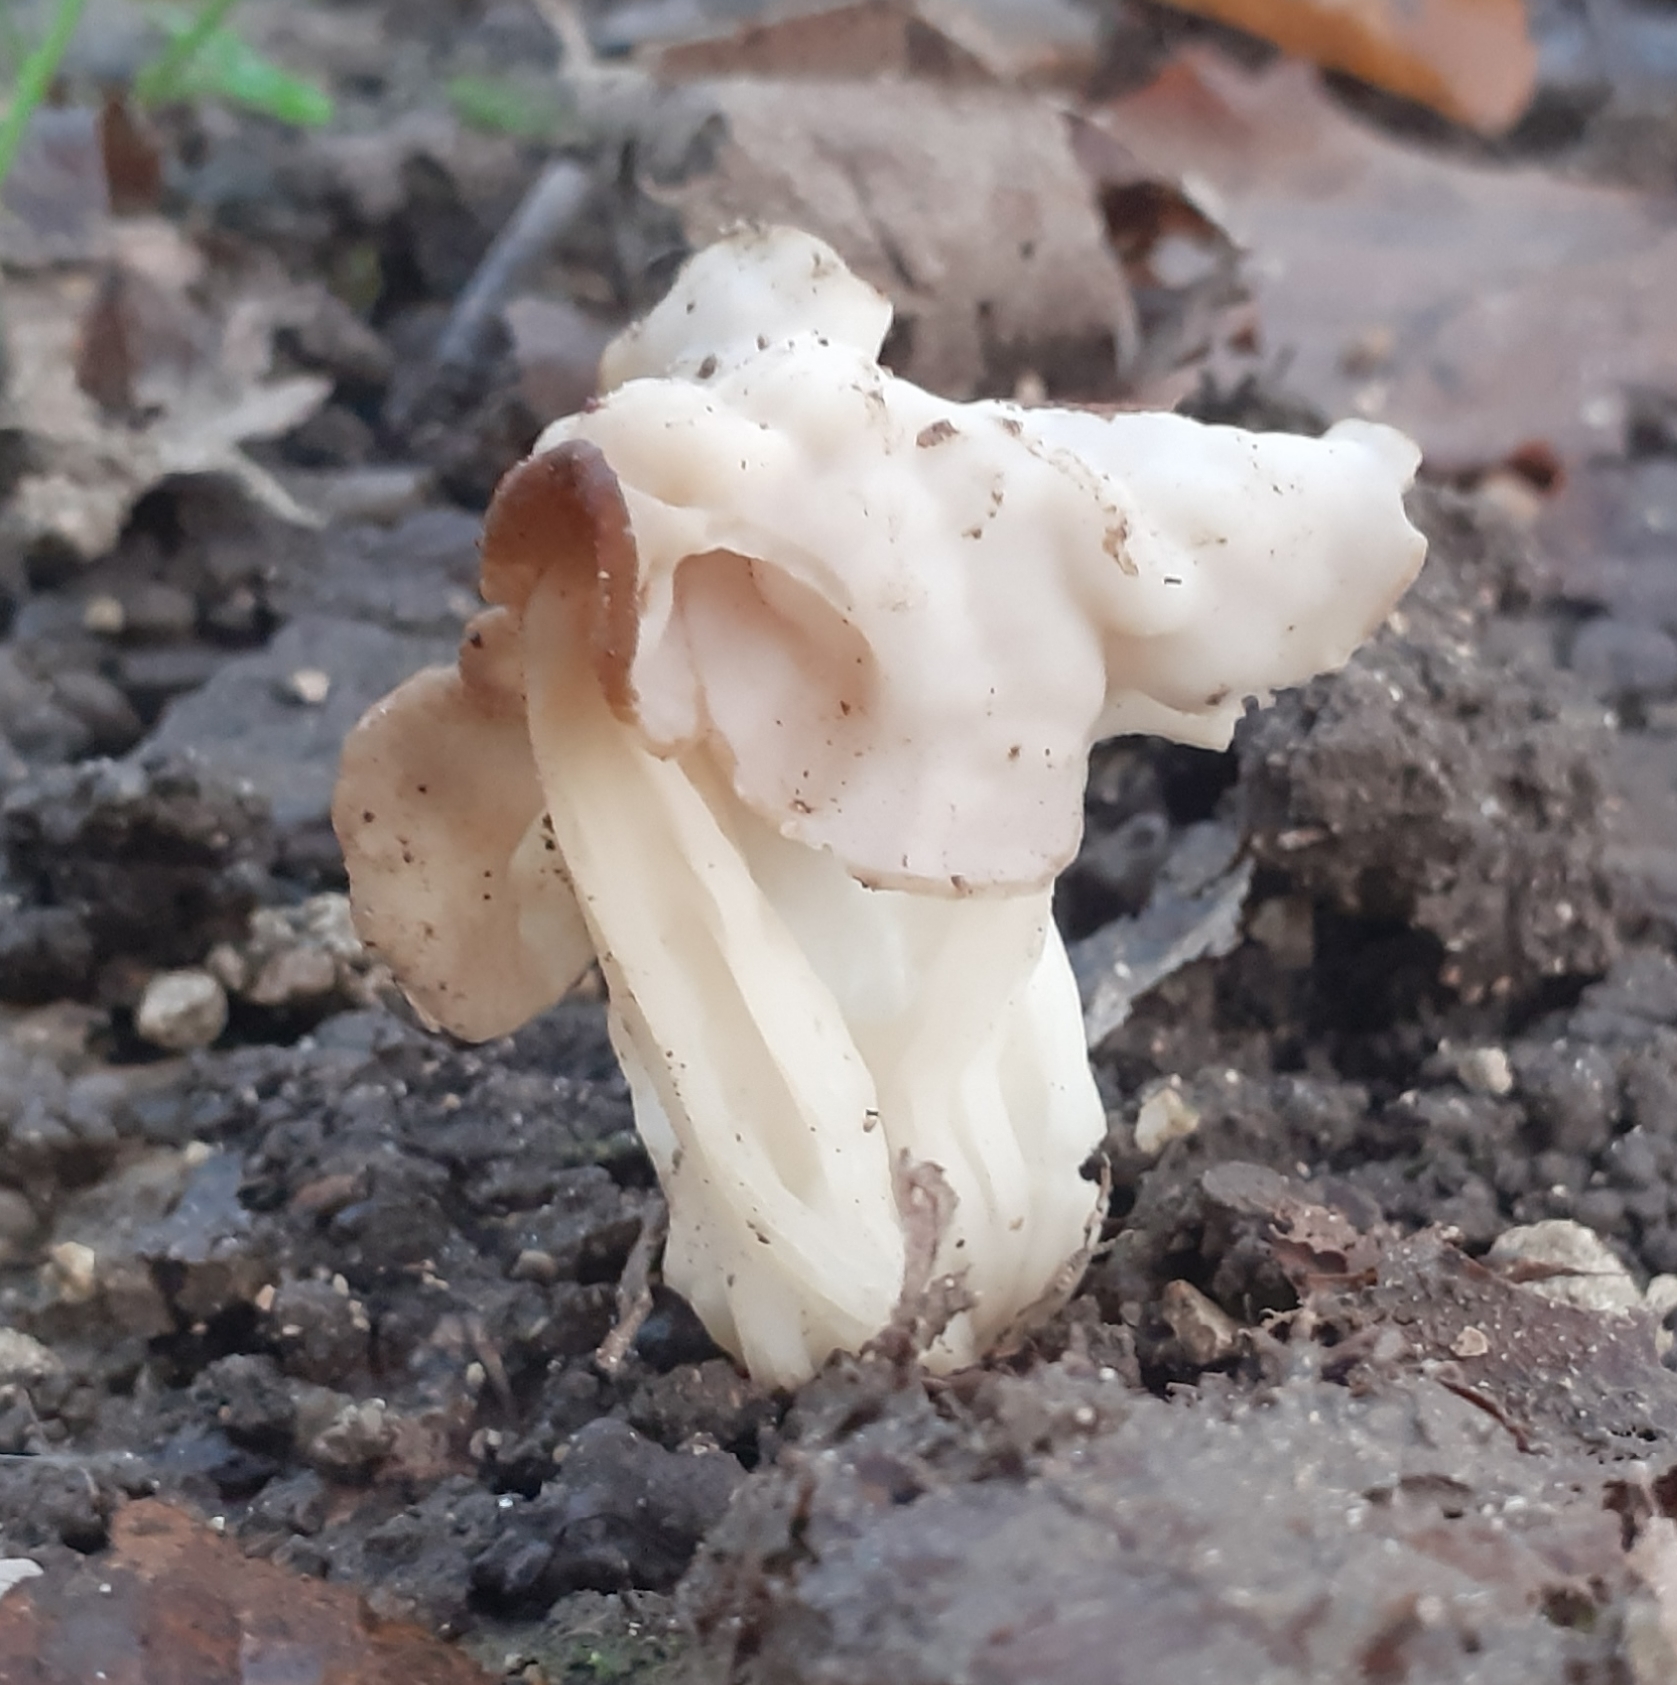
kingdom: Fungi
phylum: Ascomycota
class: Pezizomycetes
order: Pezizales
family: Helvellaceae
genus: Helvella
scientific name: Helvella crispa
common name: White saddle
